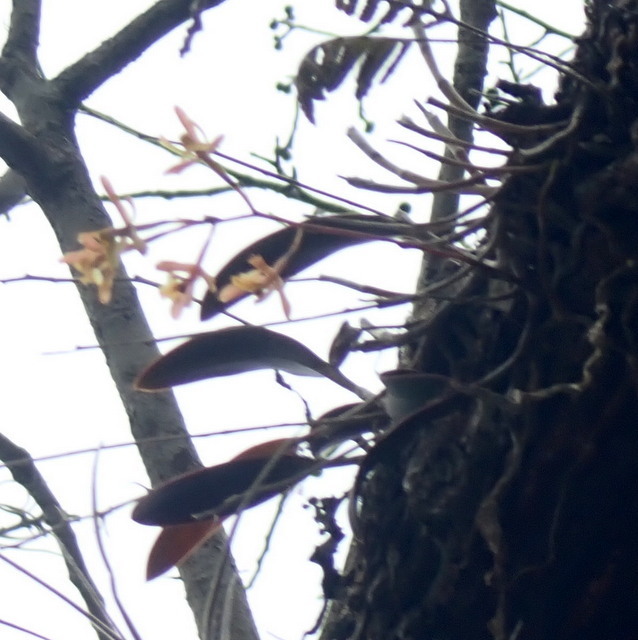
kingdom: Plantae
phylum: Tracheophyta
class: Liliopsida
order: Asparagales
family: Orchidaceae
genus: Epidendrum
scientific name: Epidendrum conopseum
